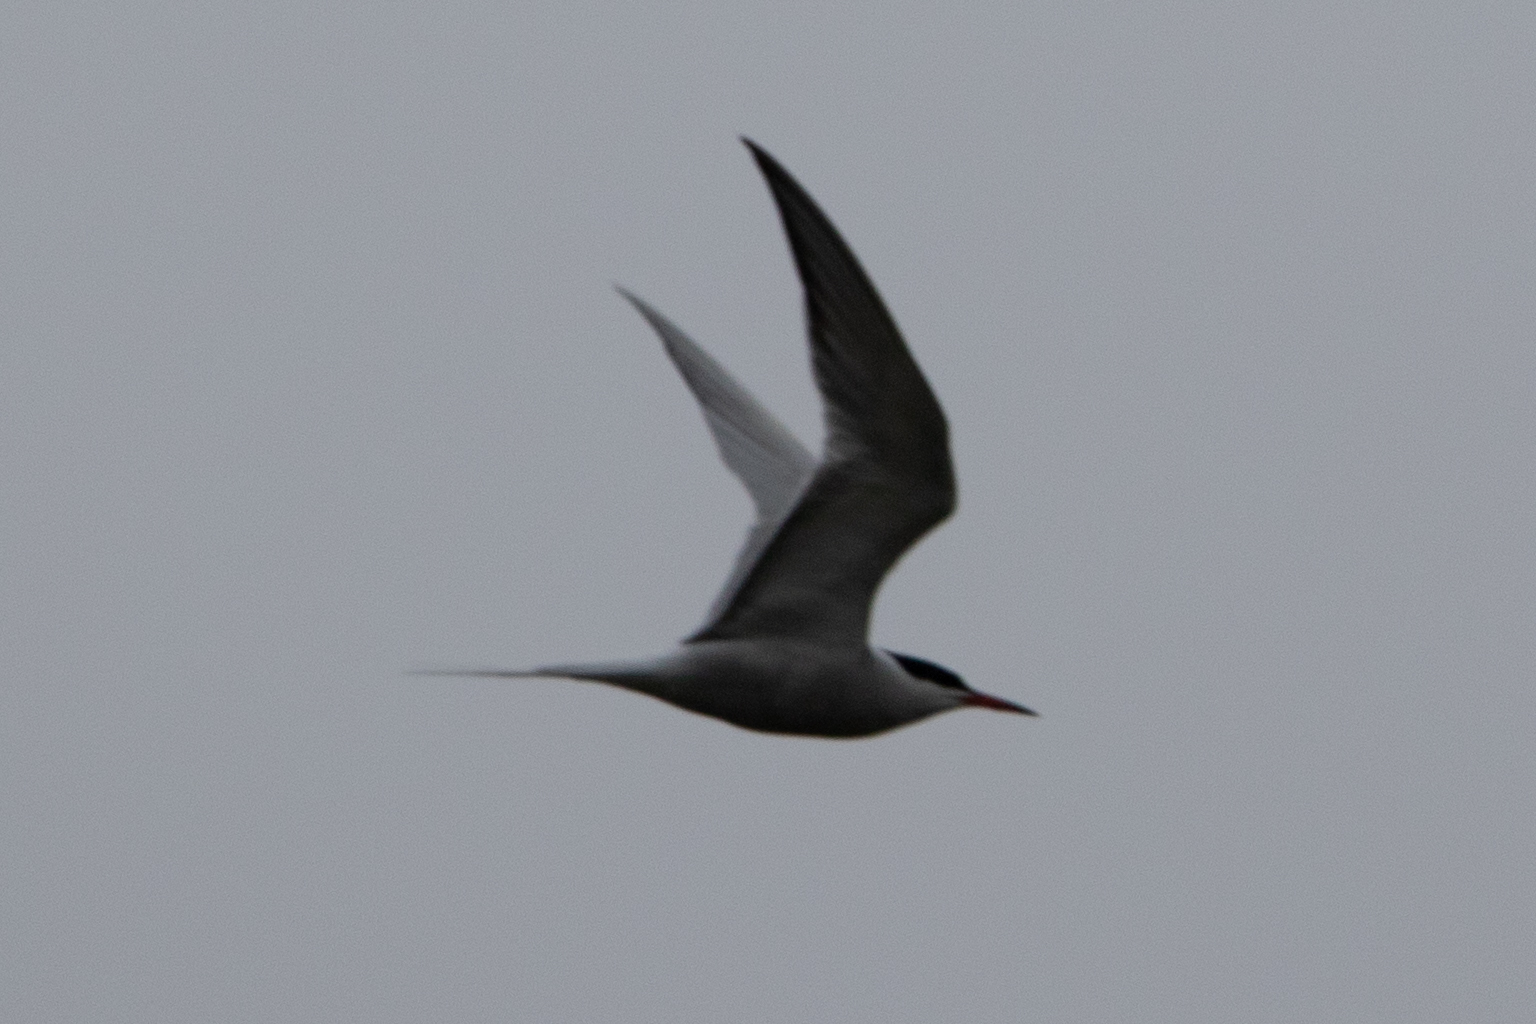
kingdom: Animalia
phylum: Chordata
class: Aves
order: Charadriiformes
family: Laridae
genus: Sterna
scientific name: Sterna hirundo
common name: Common tern
